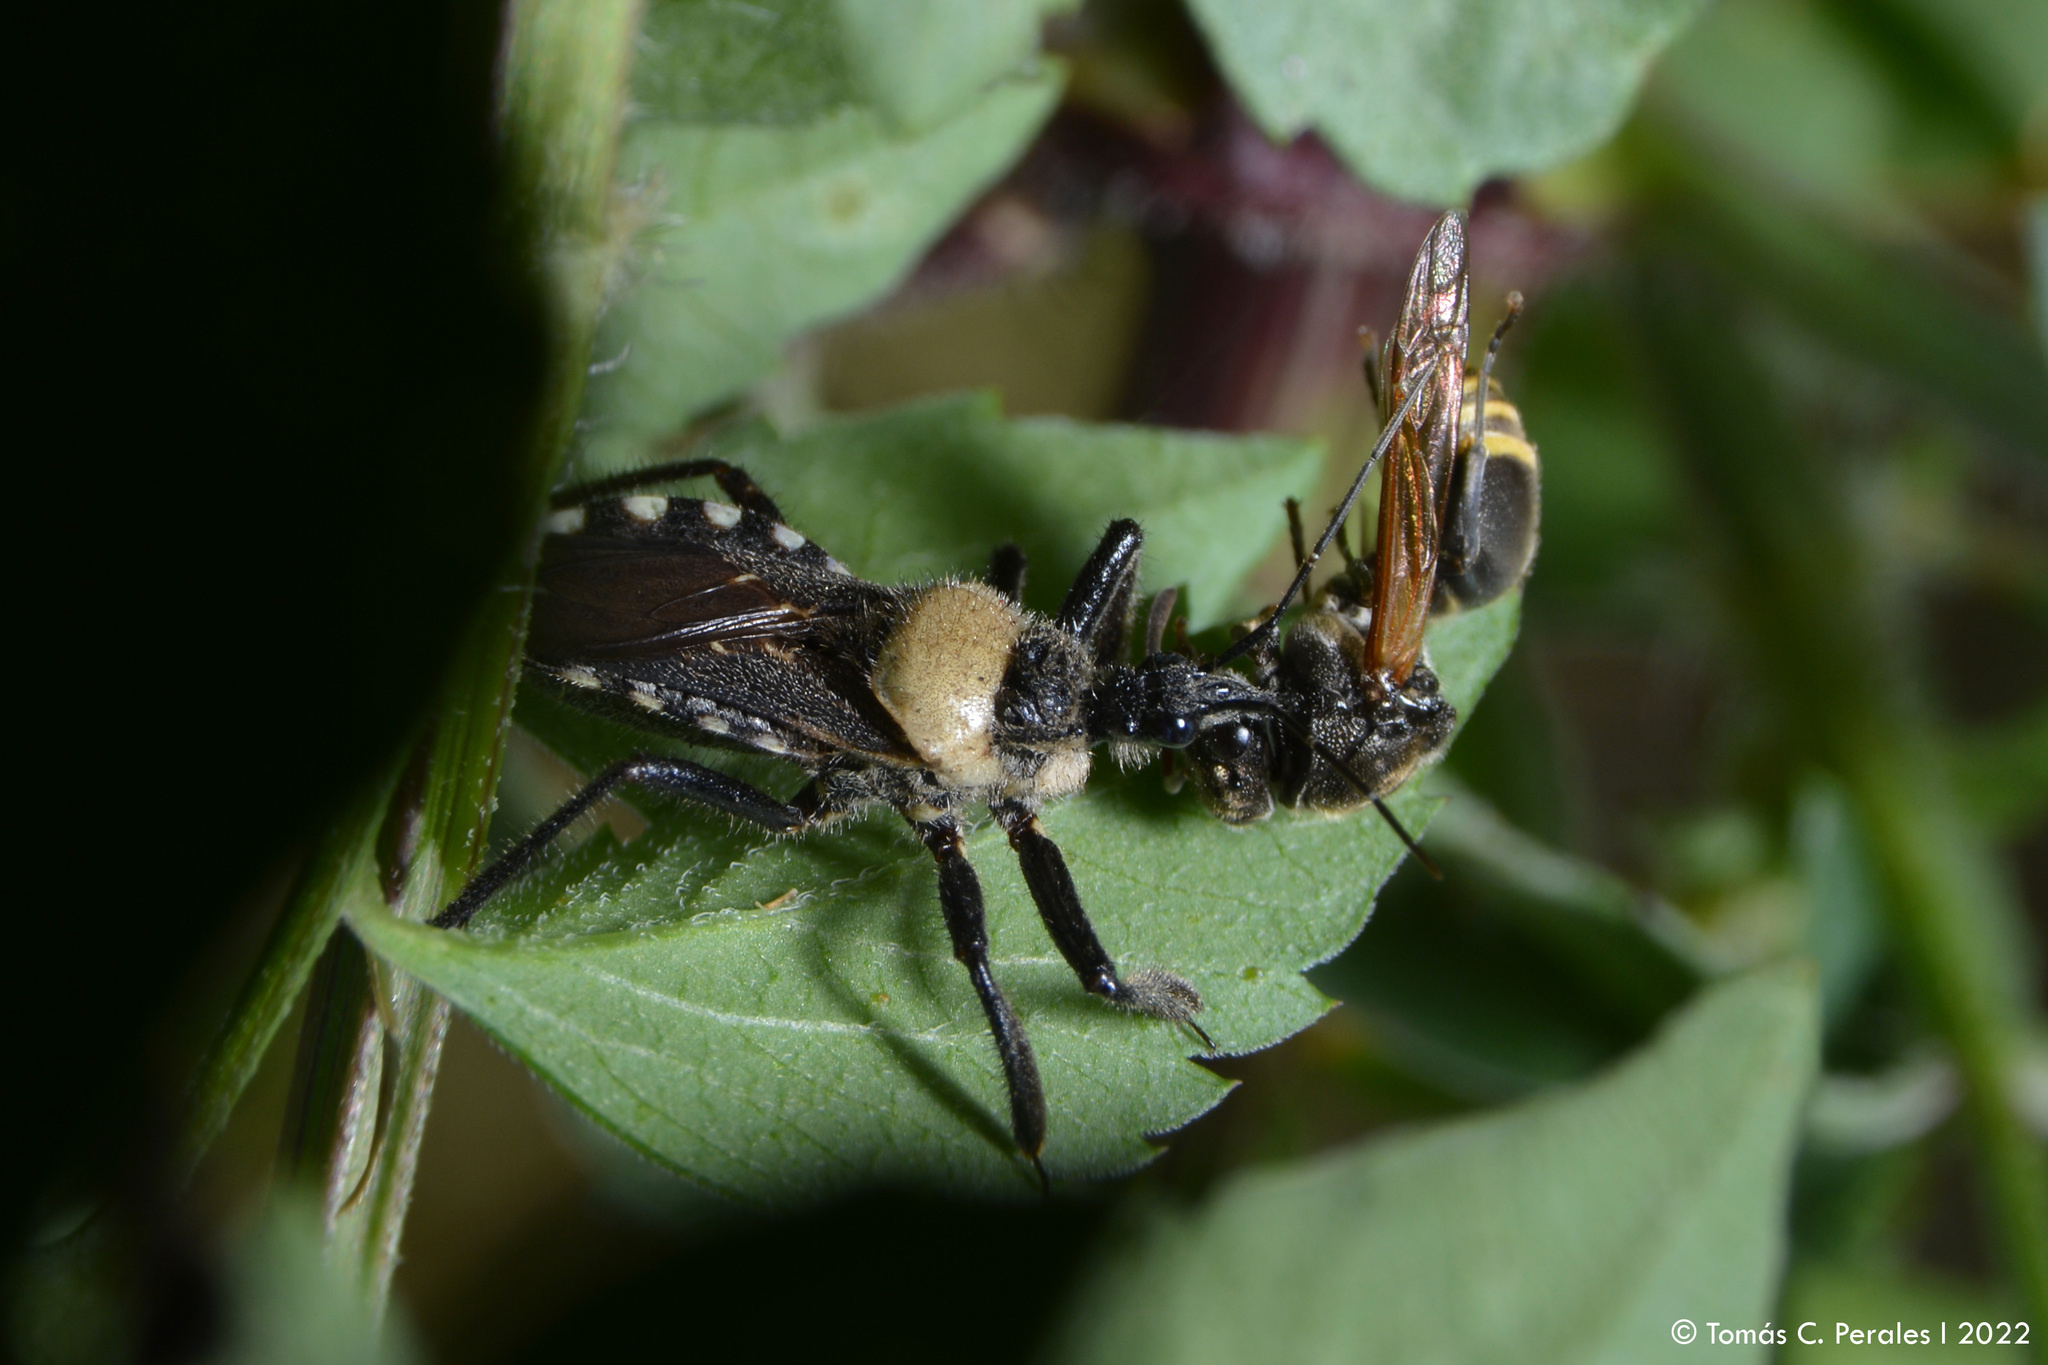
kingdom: Animalia
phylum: Arthropoda
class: Insecta
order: Hemiptera
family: Reduviidae
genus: Apiomerus
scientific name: Apiomerus arnaui
